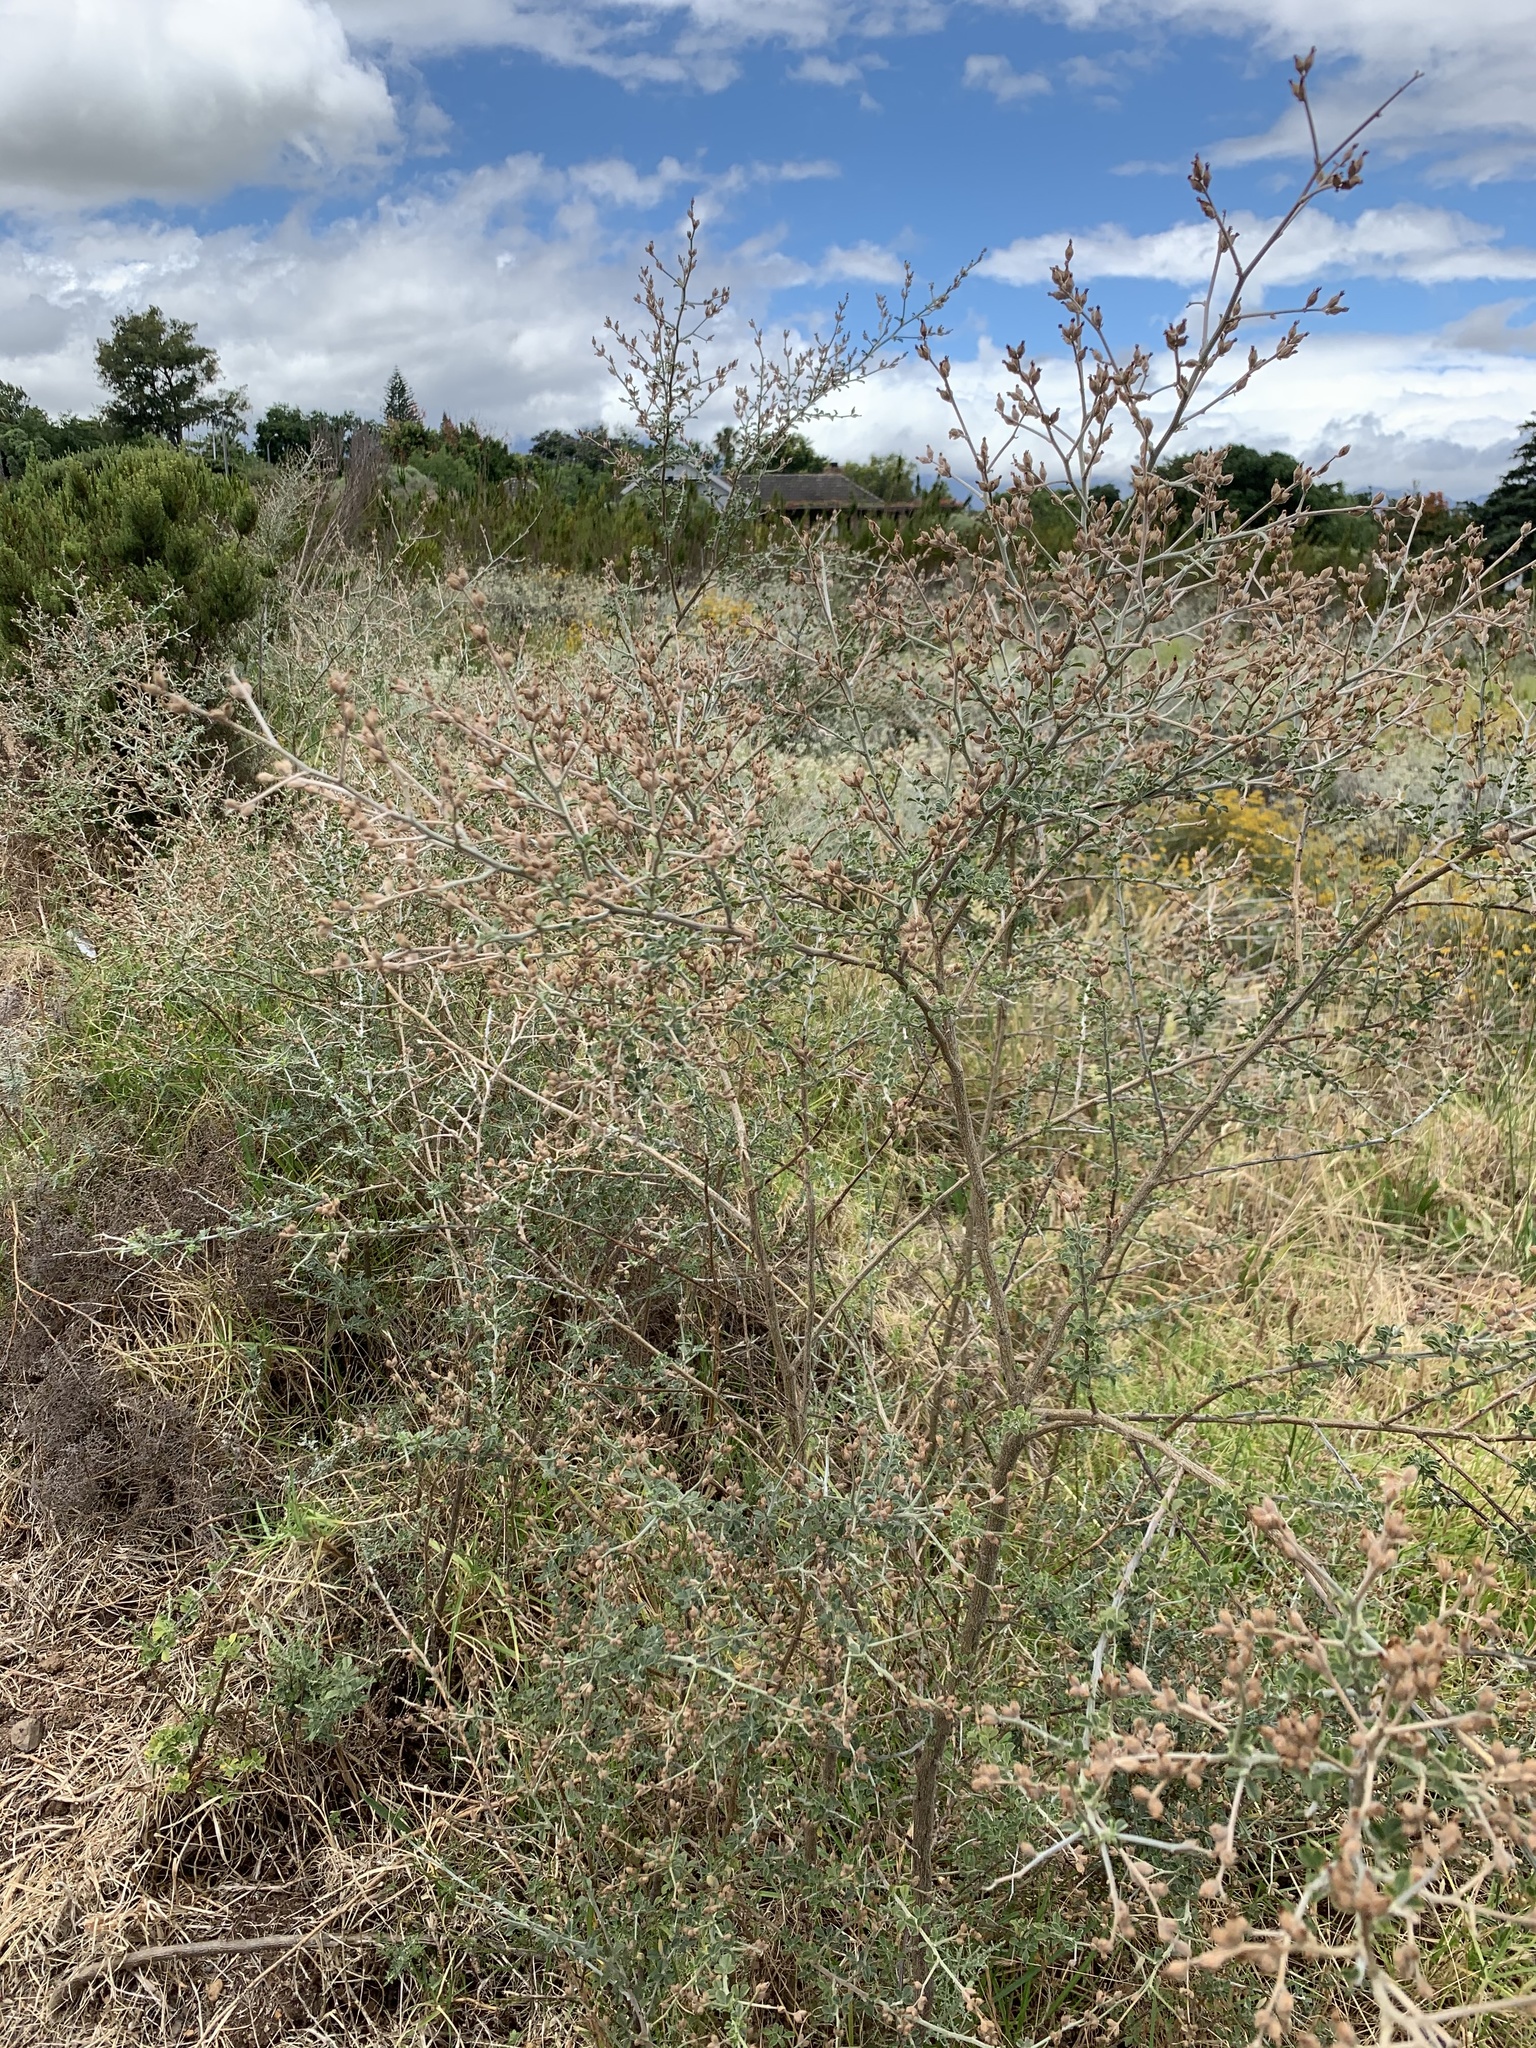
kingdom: Plantae
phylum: Tracheophyta
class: Magnoliopsida
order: Fabales
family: Fabaceae
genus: Psoralea
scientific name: Psoralea hirta
